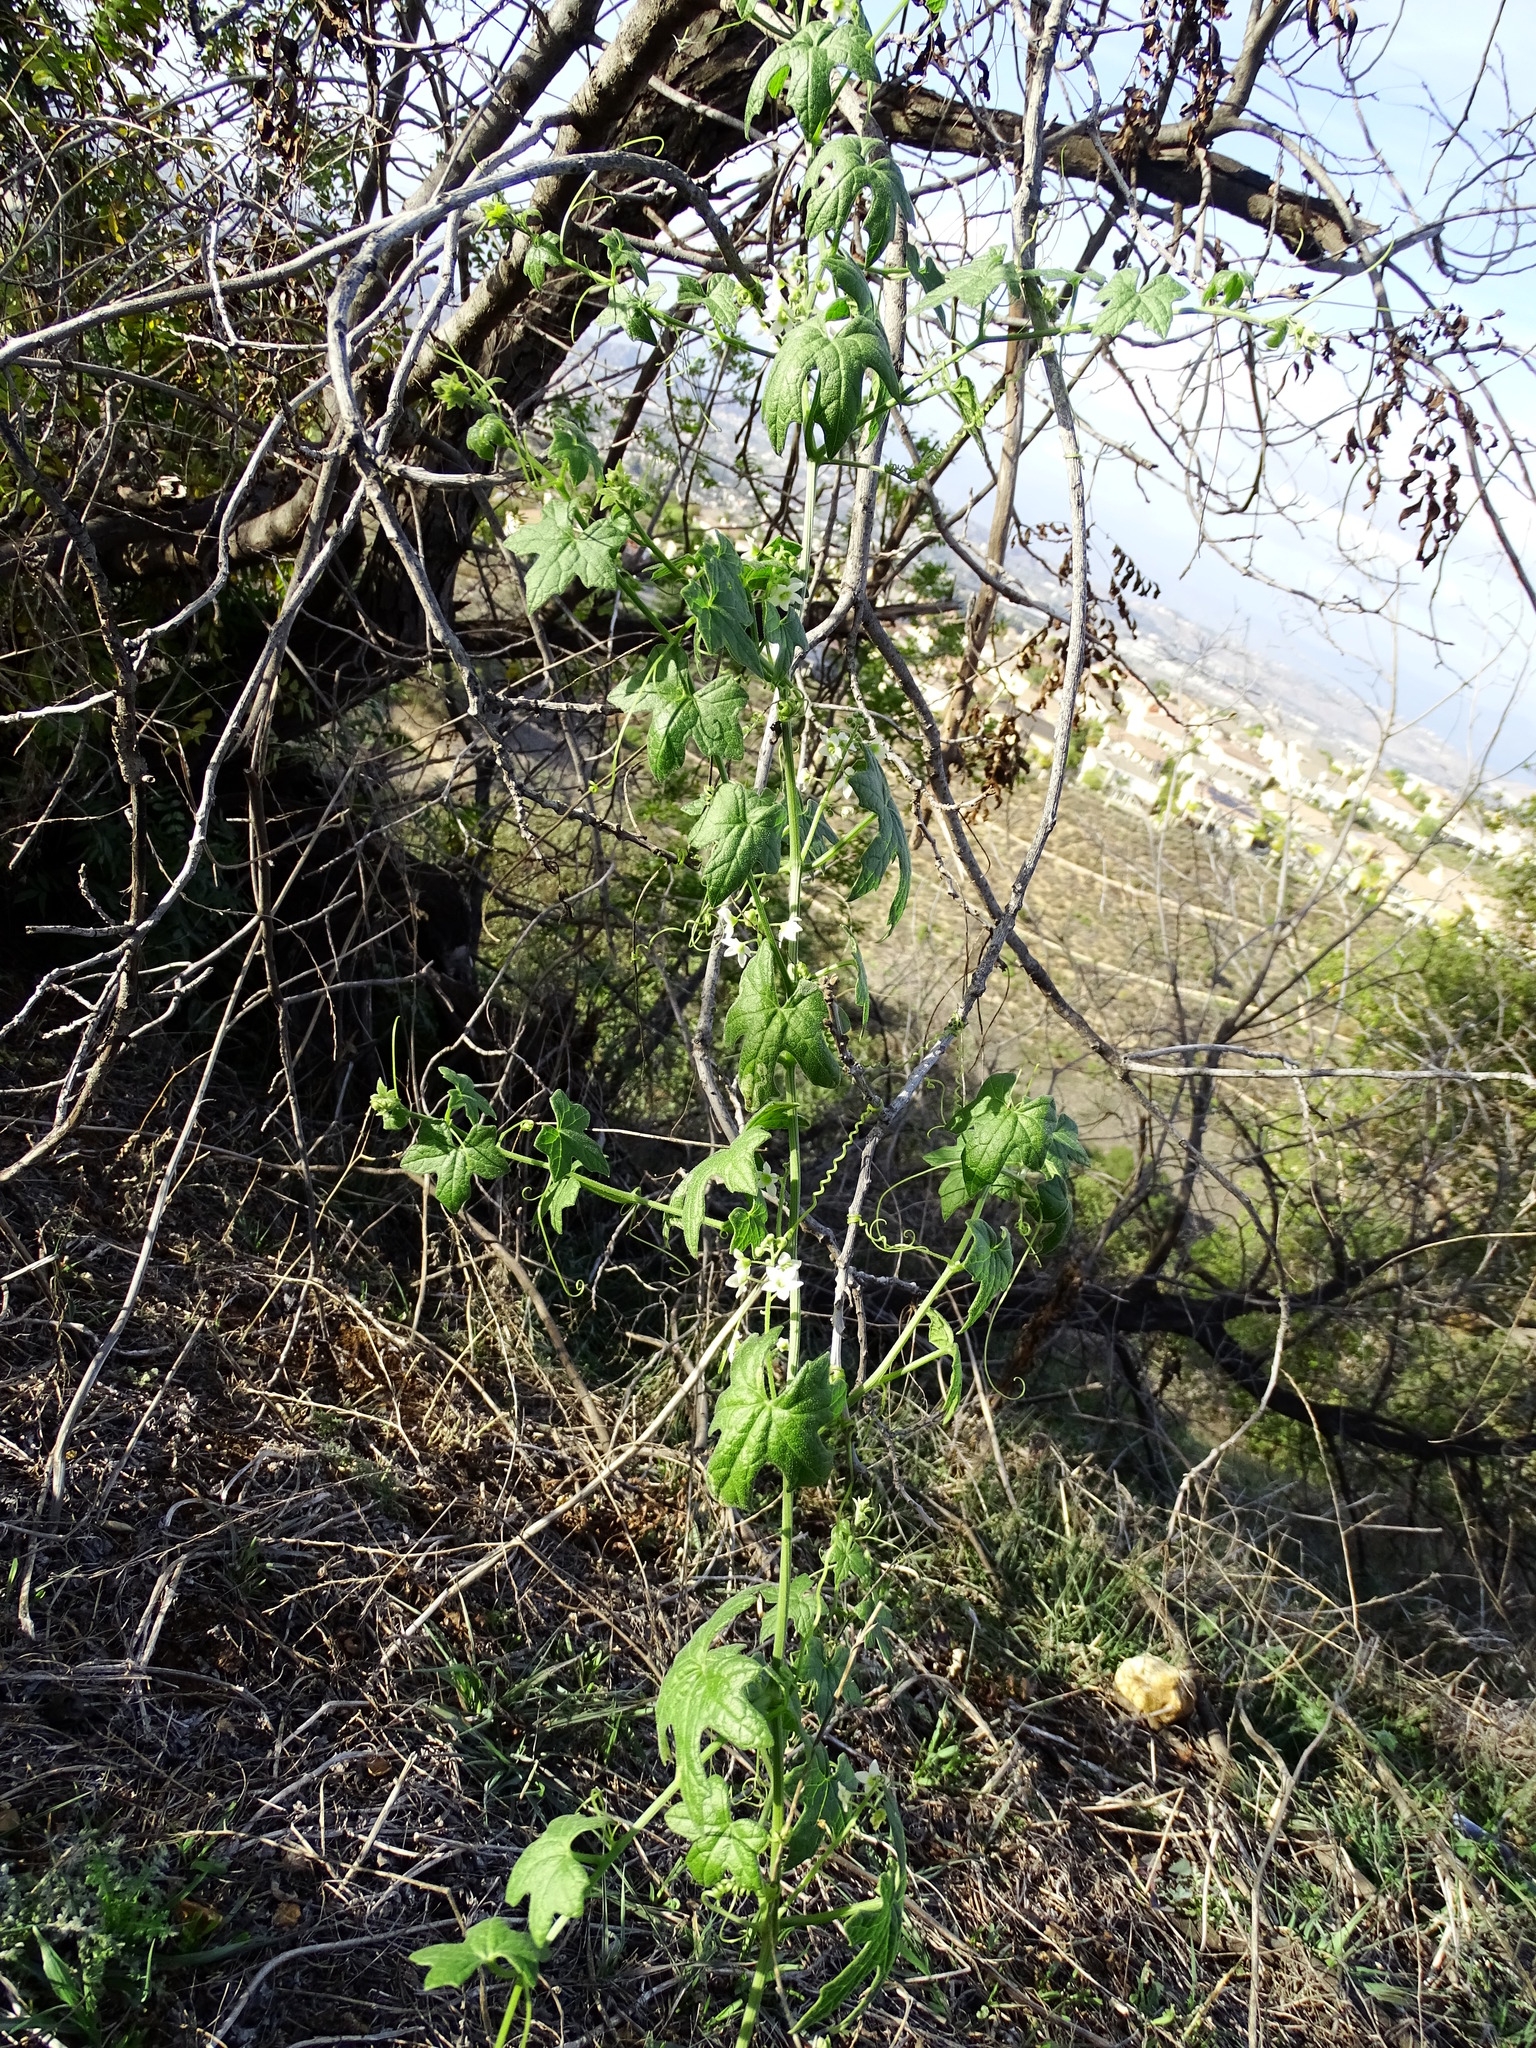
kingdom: Plantae
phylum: Tracheophyta
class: Magnoliopsida
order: Cucurbitales
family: Cucurbitaceae
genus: Marah
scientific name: Marah macrocarpa
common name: Cucamonga manroot
